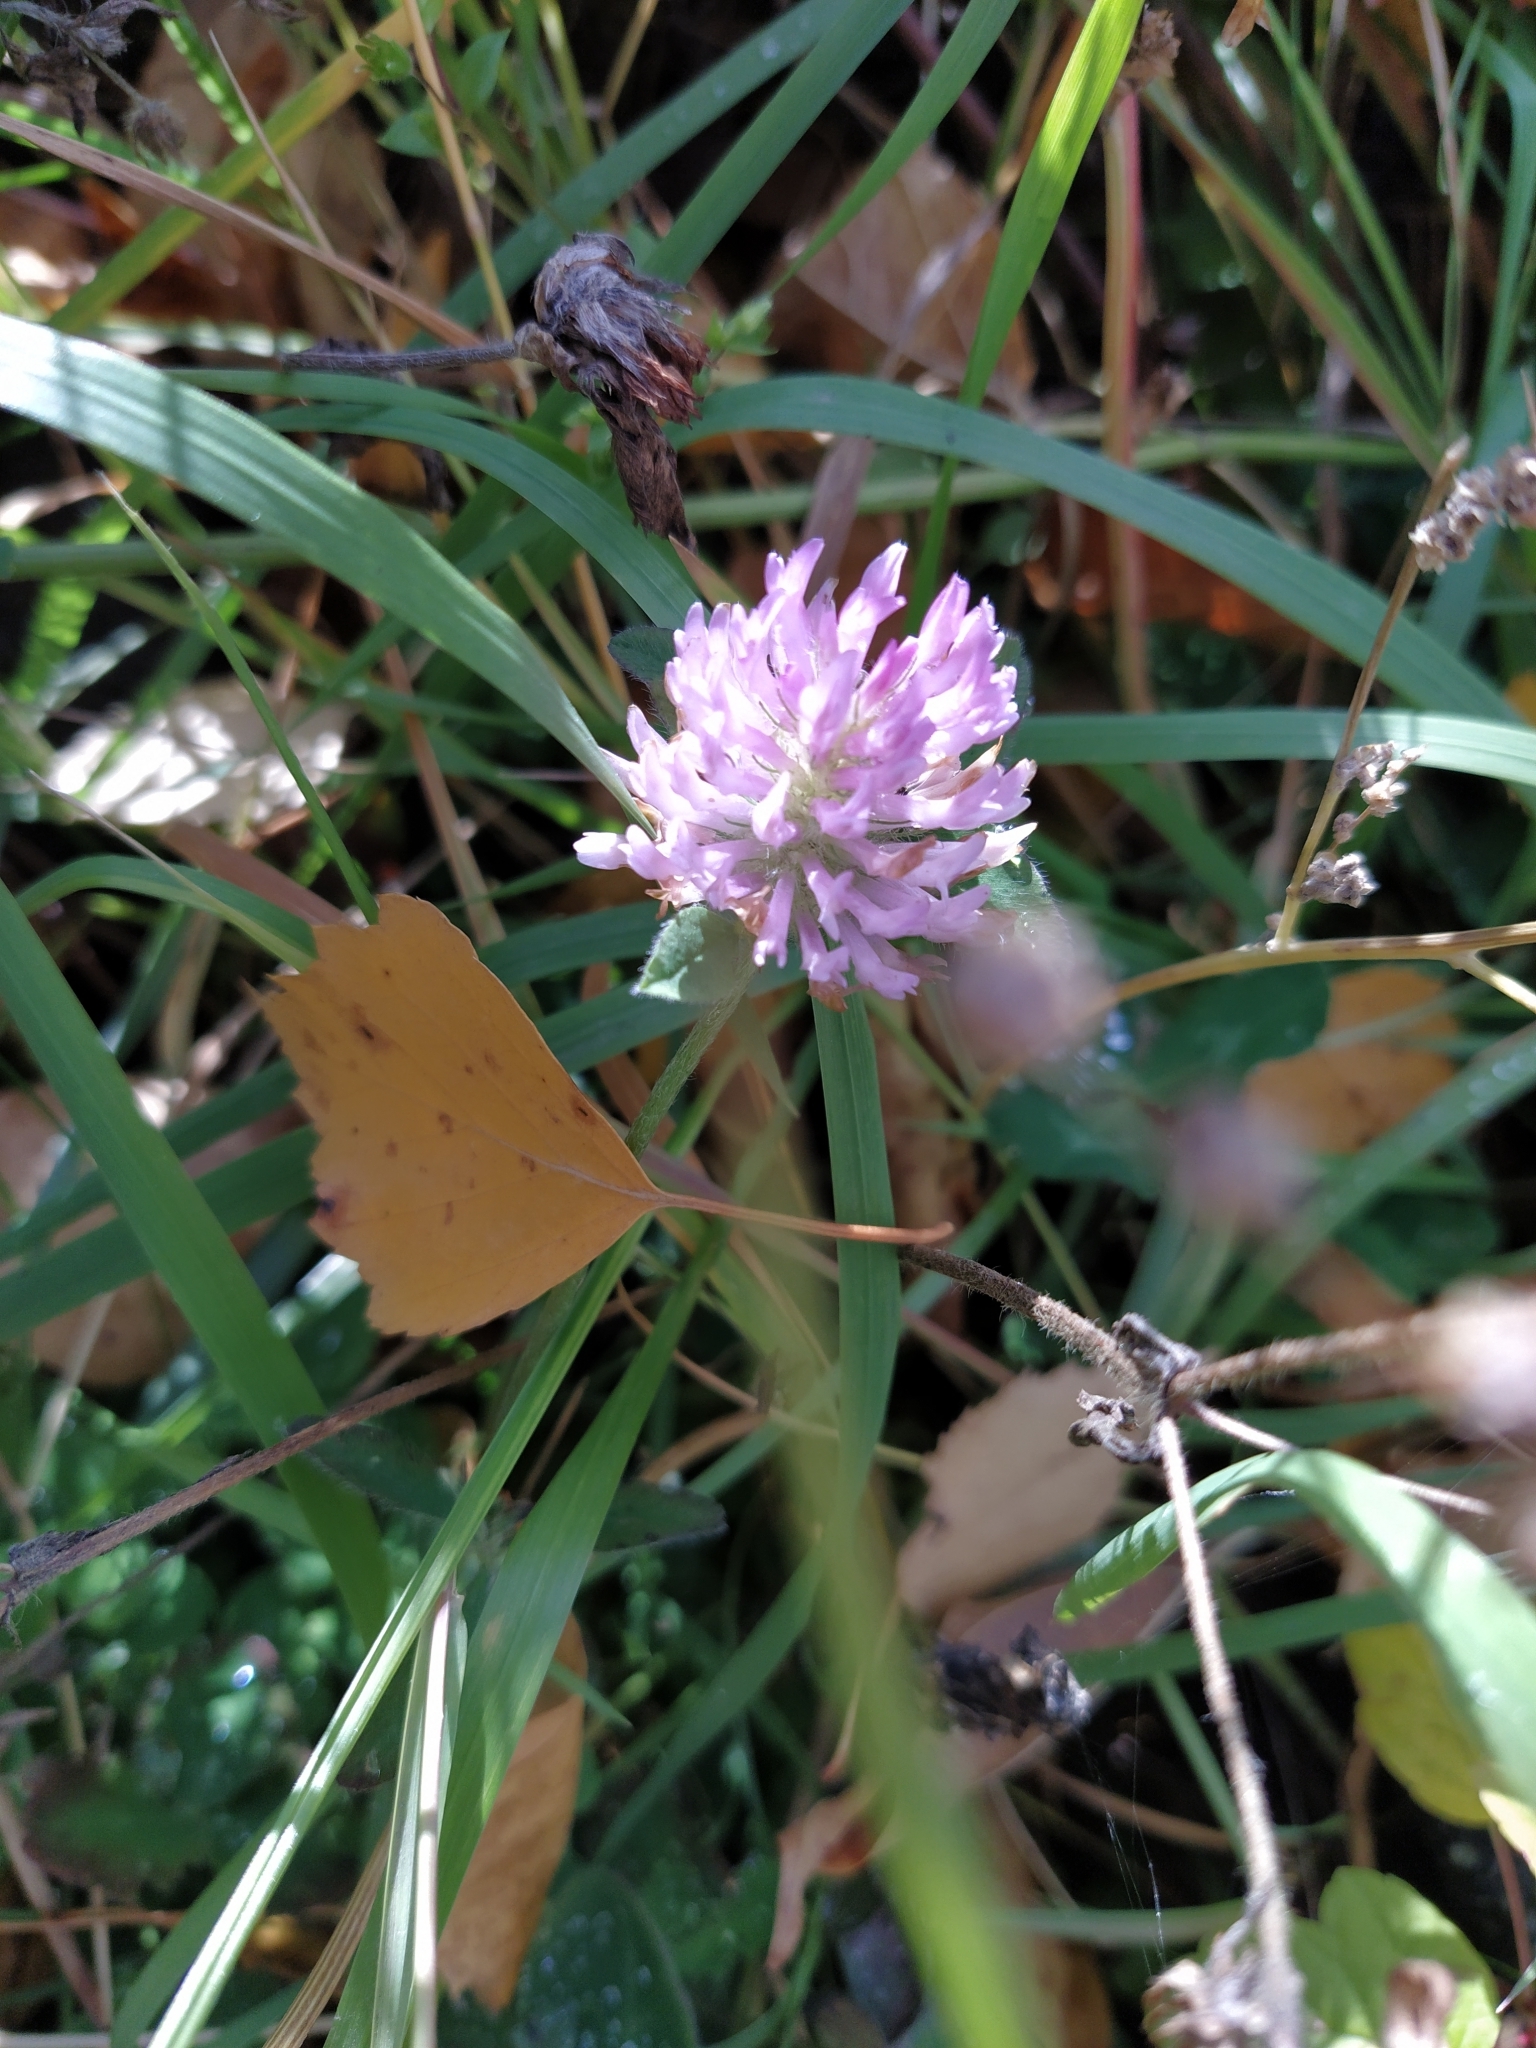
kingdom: Plantae
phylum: Tracheophyta
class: Magnoliopsida
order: Fabales
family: Fabaceae
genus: Trifolium
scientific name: Trifolium pratense
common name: Red clover
